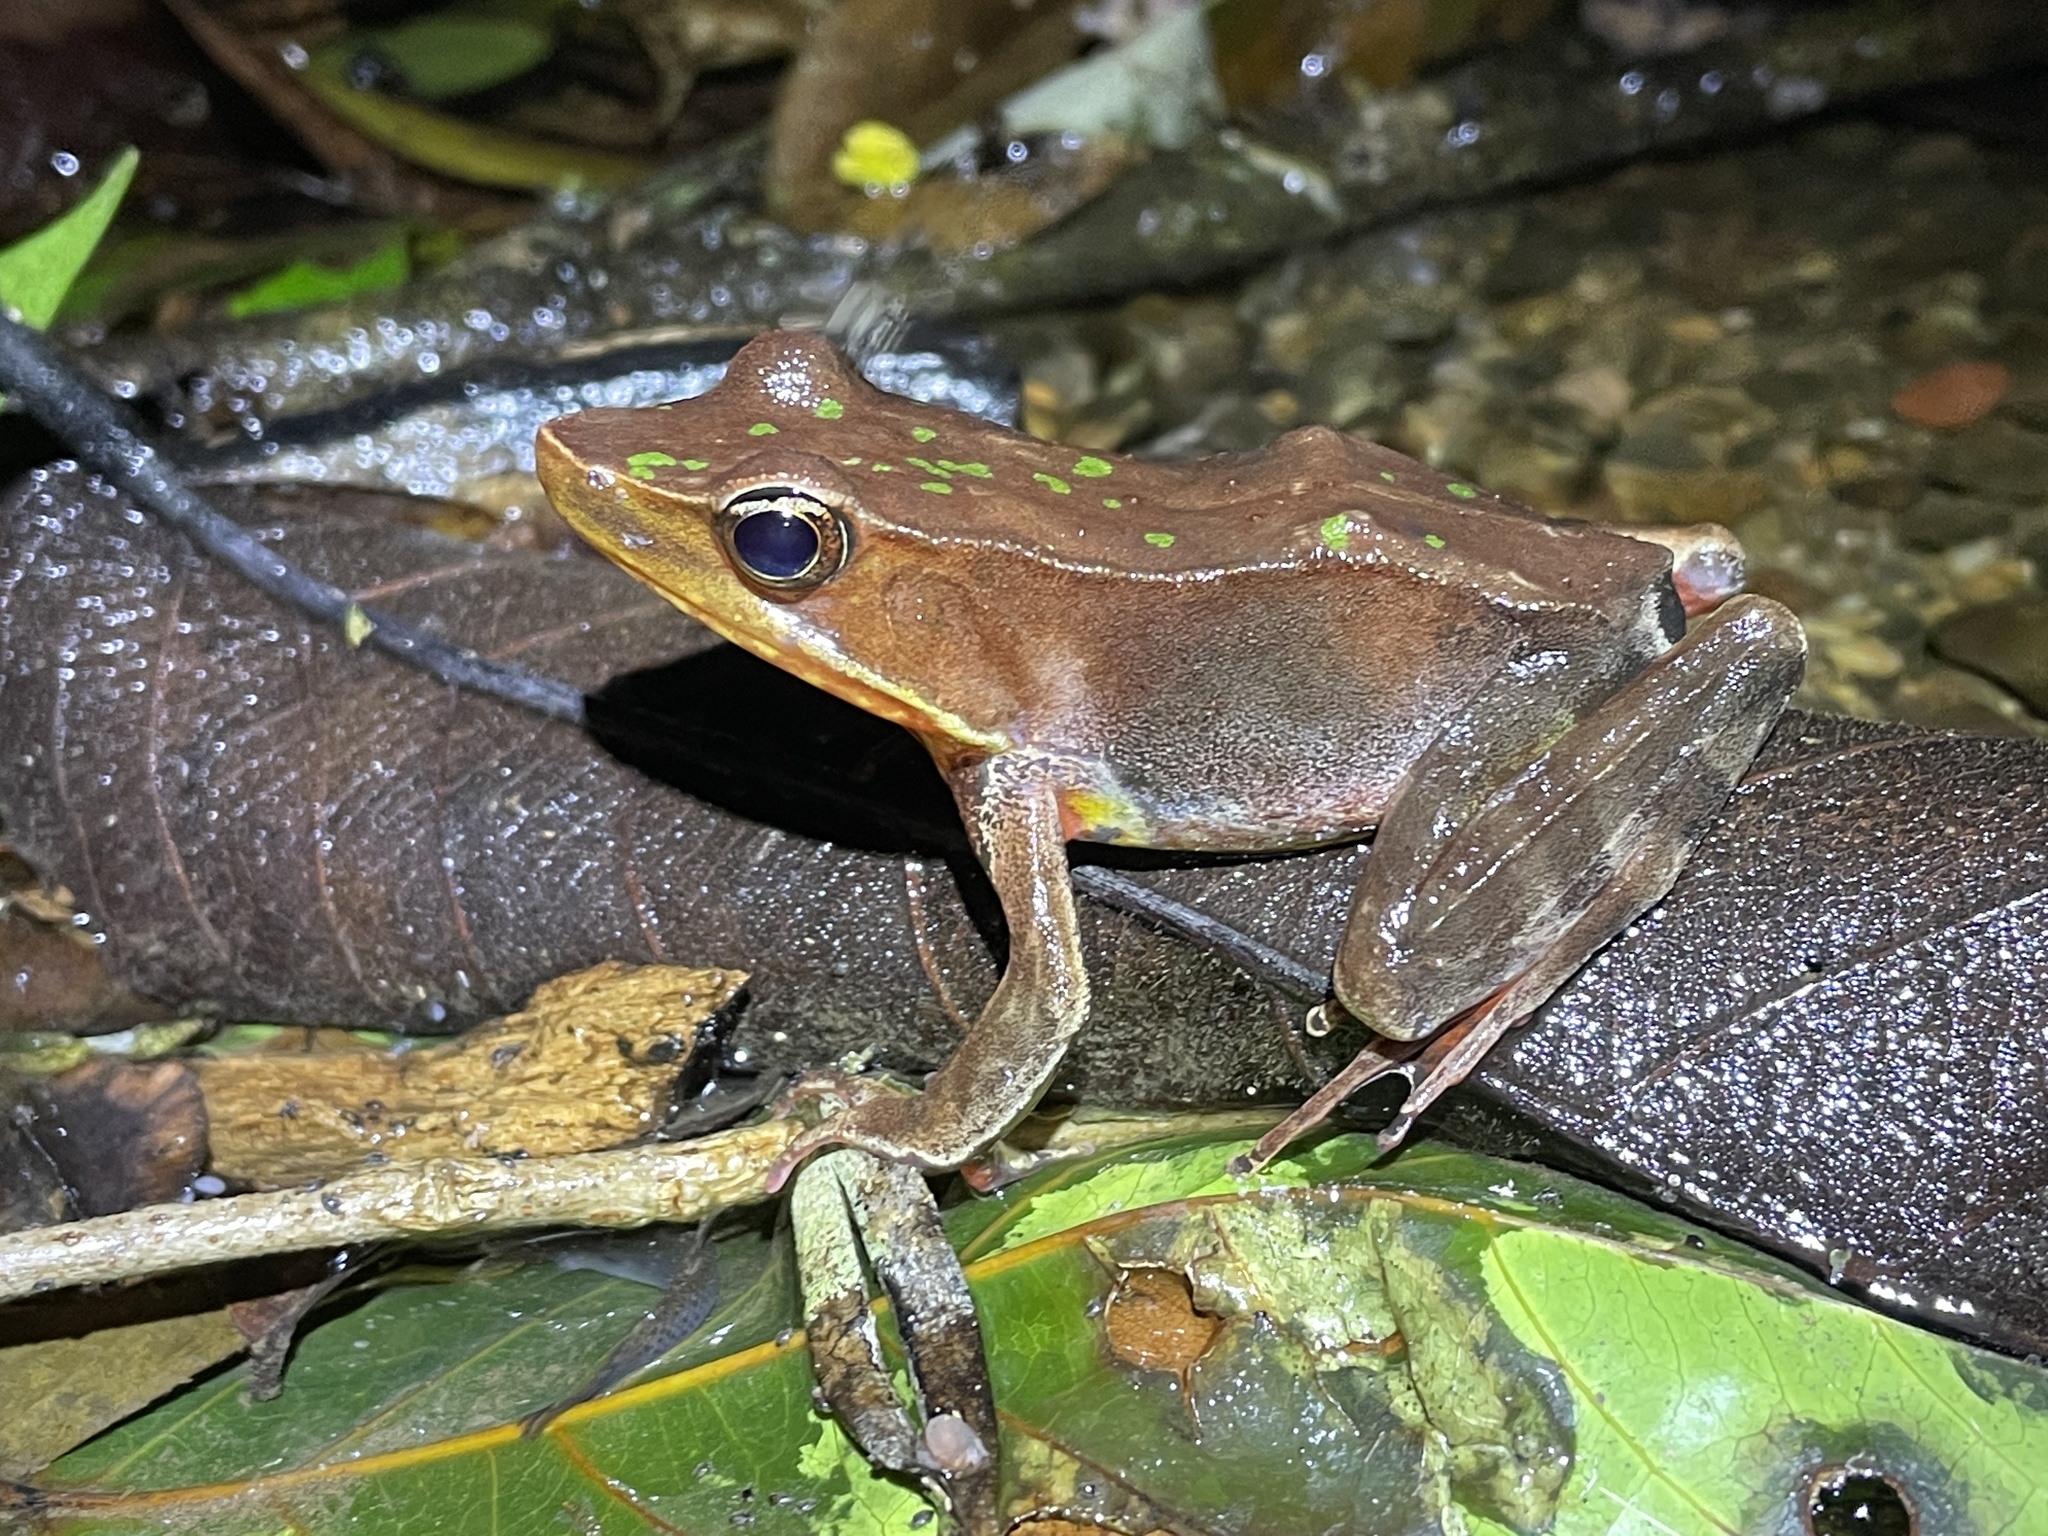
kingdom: Animalia
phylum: Chordata
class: Amphibia
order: Anura
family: Ranidae
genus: Lithobates
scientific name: Lithobates warszewitschii
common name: Warszewitsch's frog
